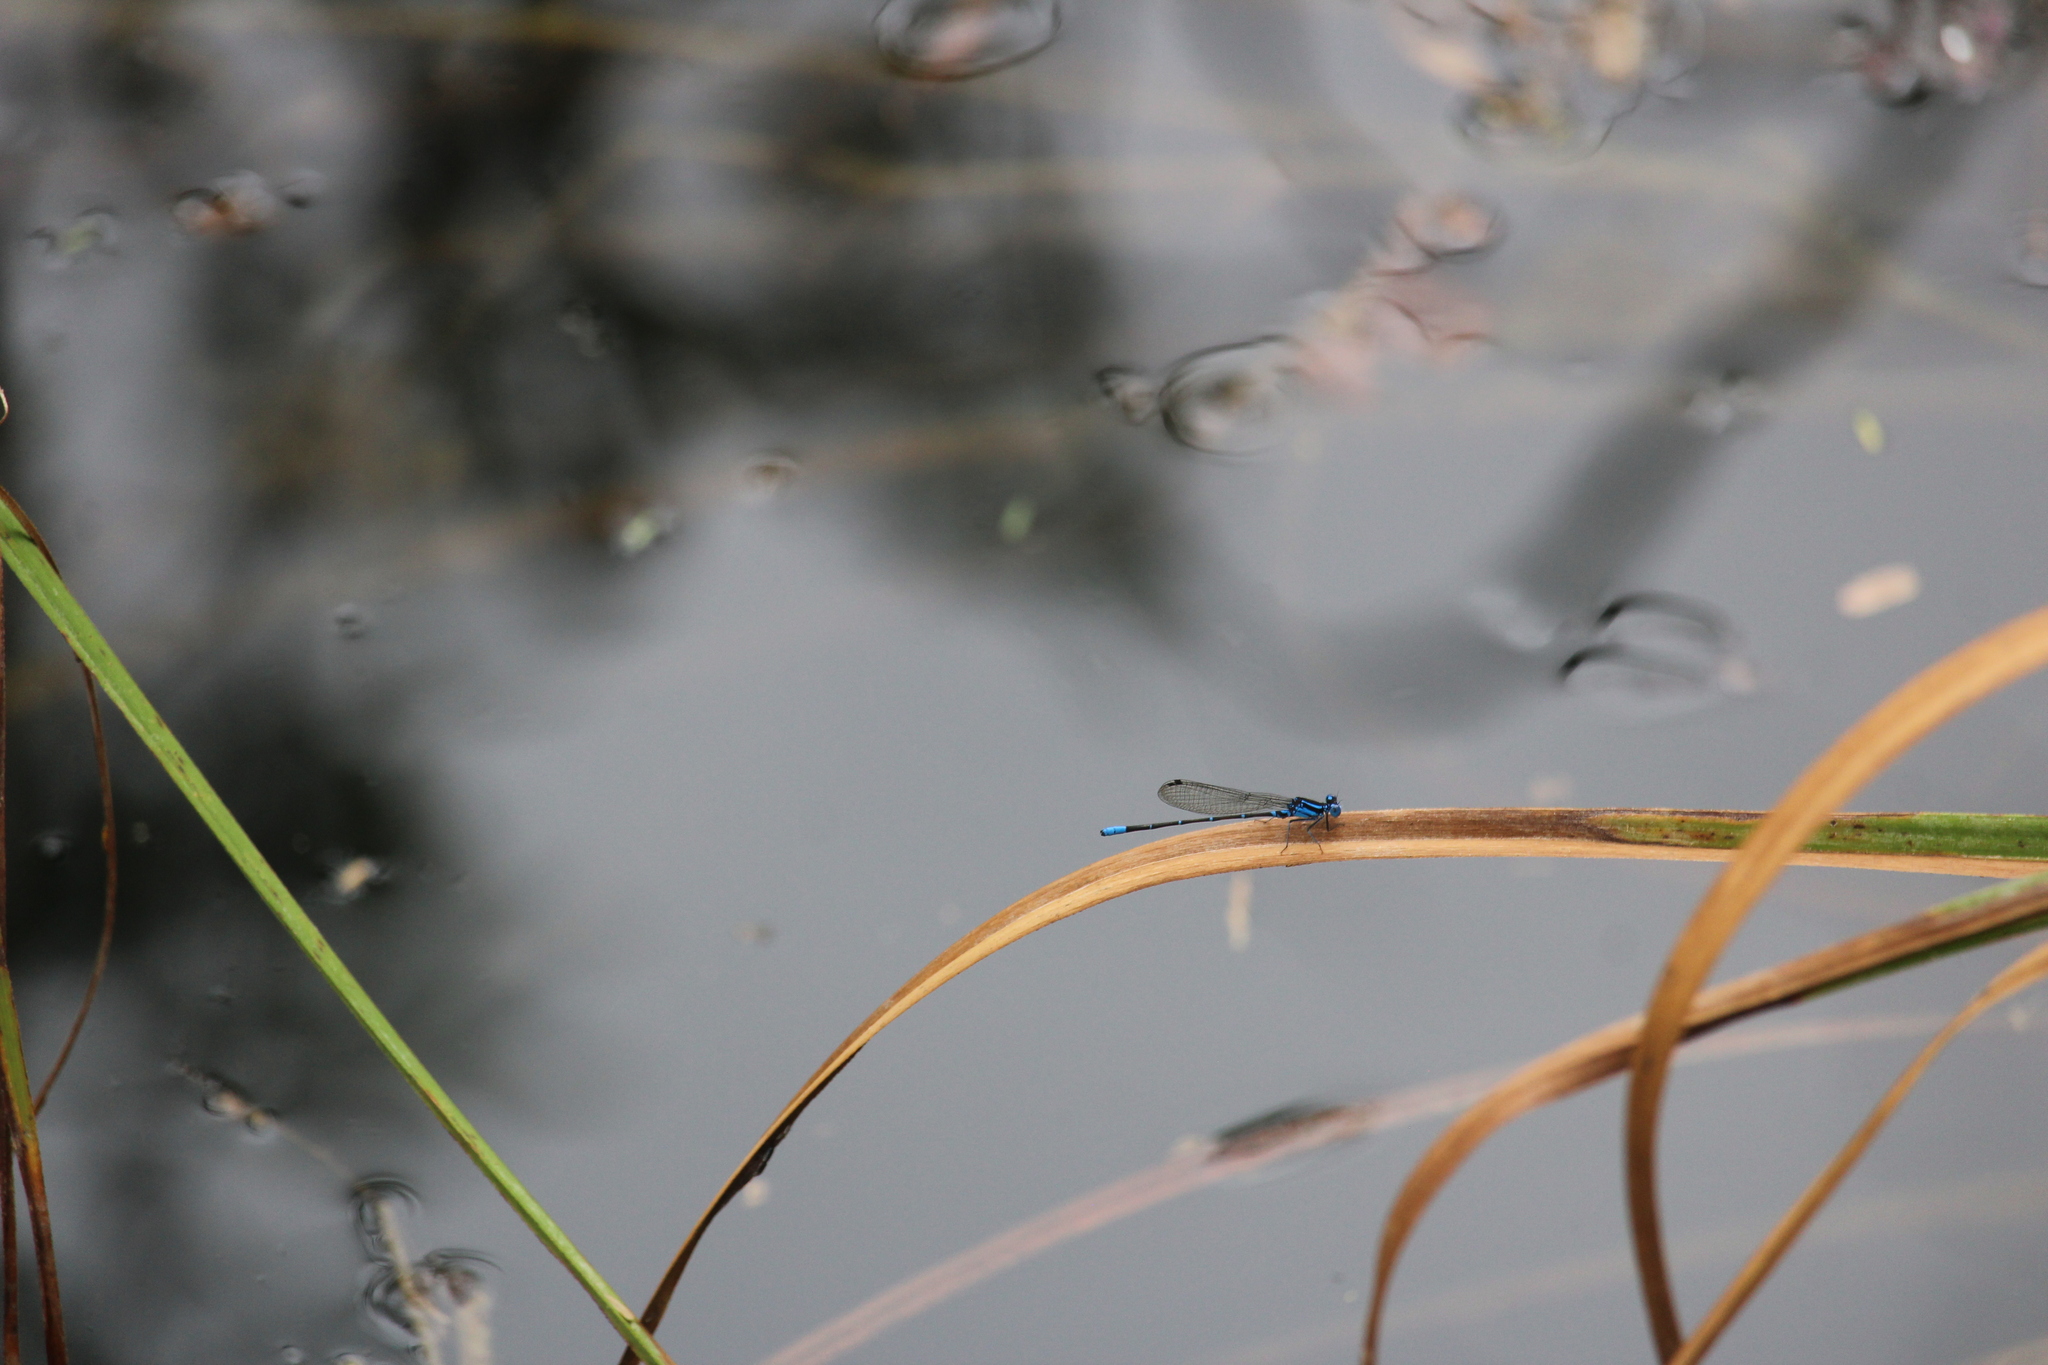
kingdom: Animalia
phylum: Arthropoda
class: Insecta
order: Odonata
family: Coenagrionidae
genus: Argia
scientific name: Argia gaumeri
